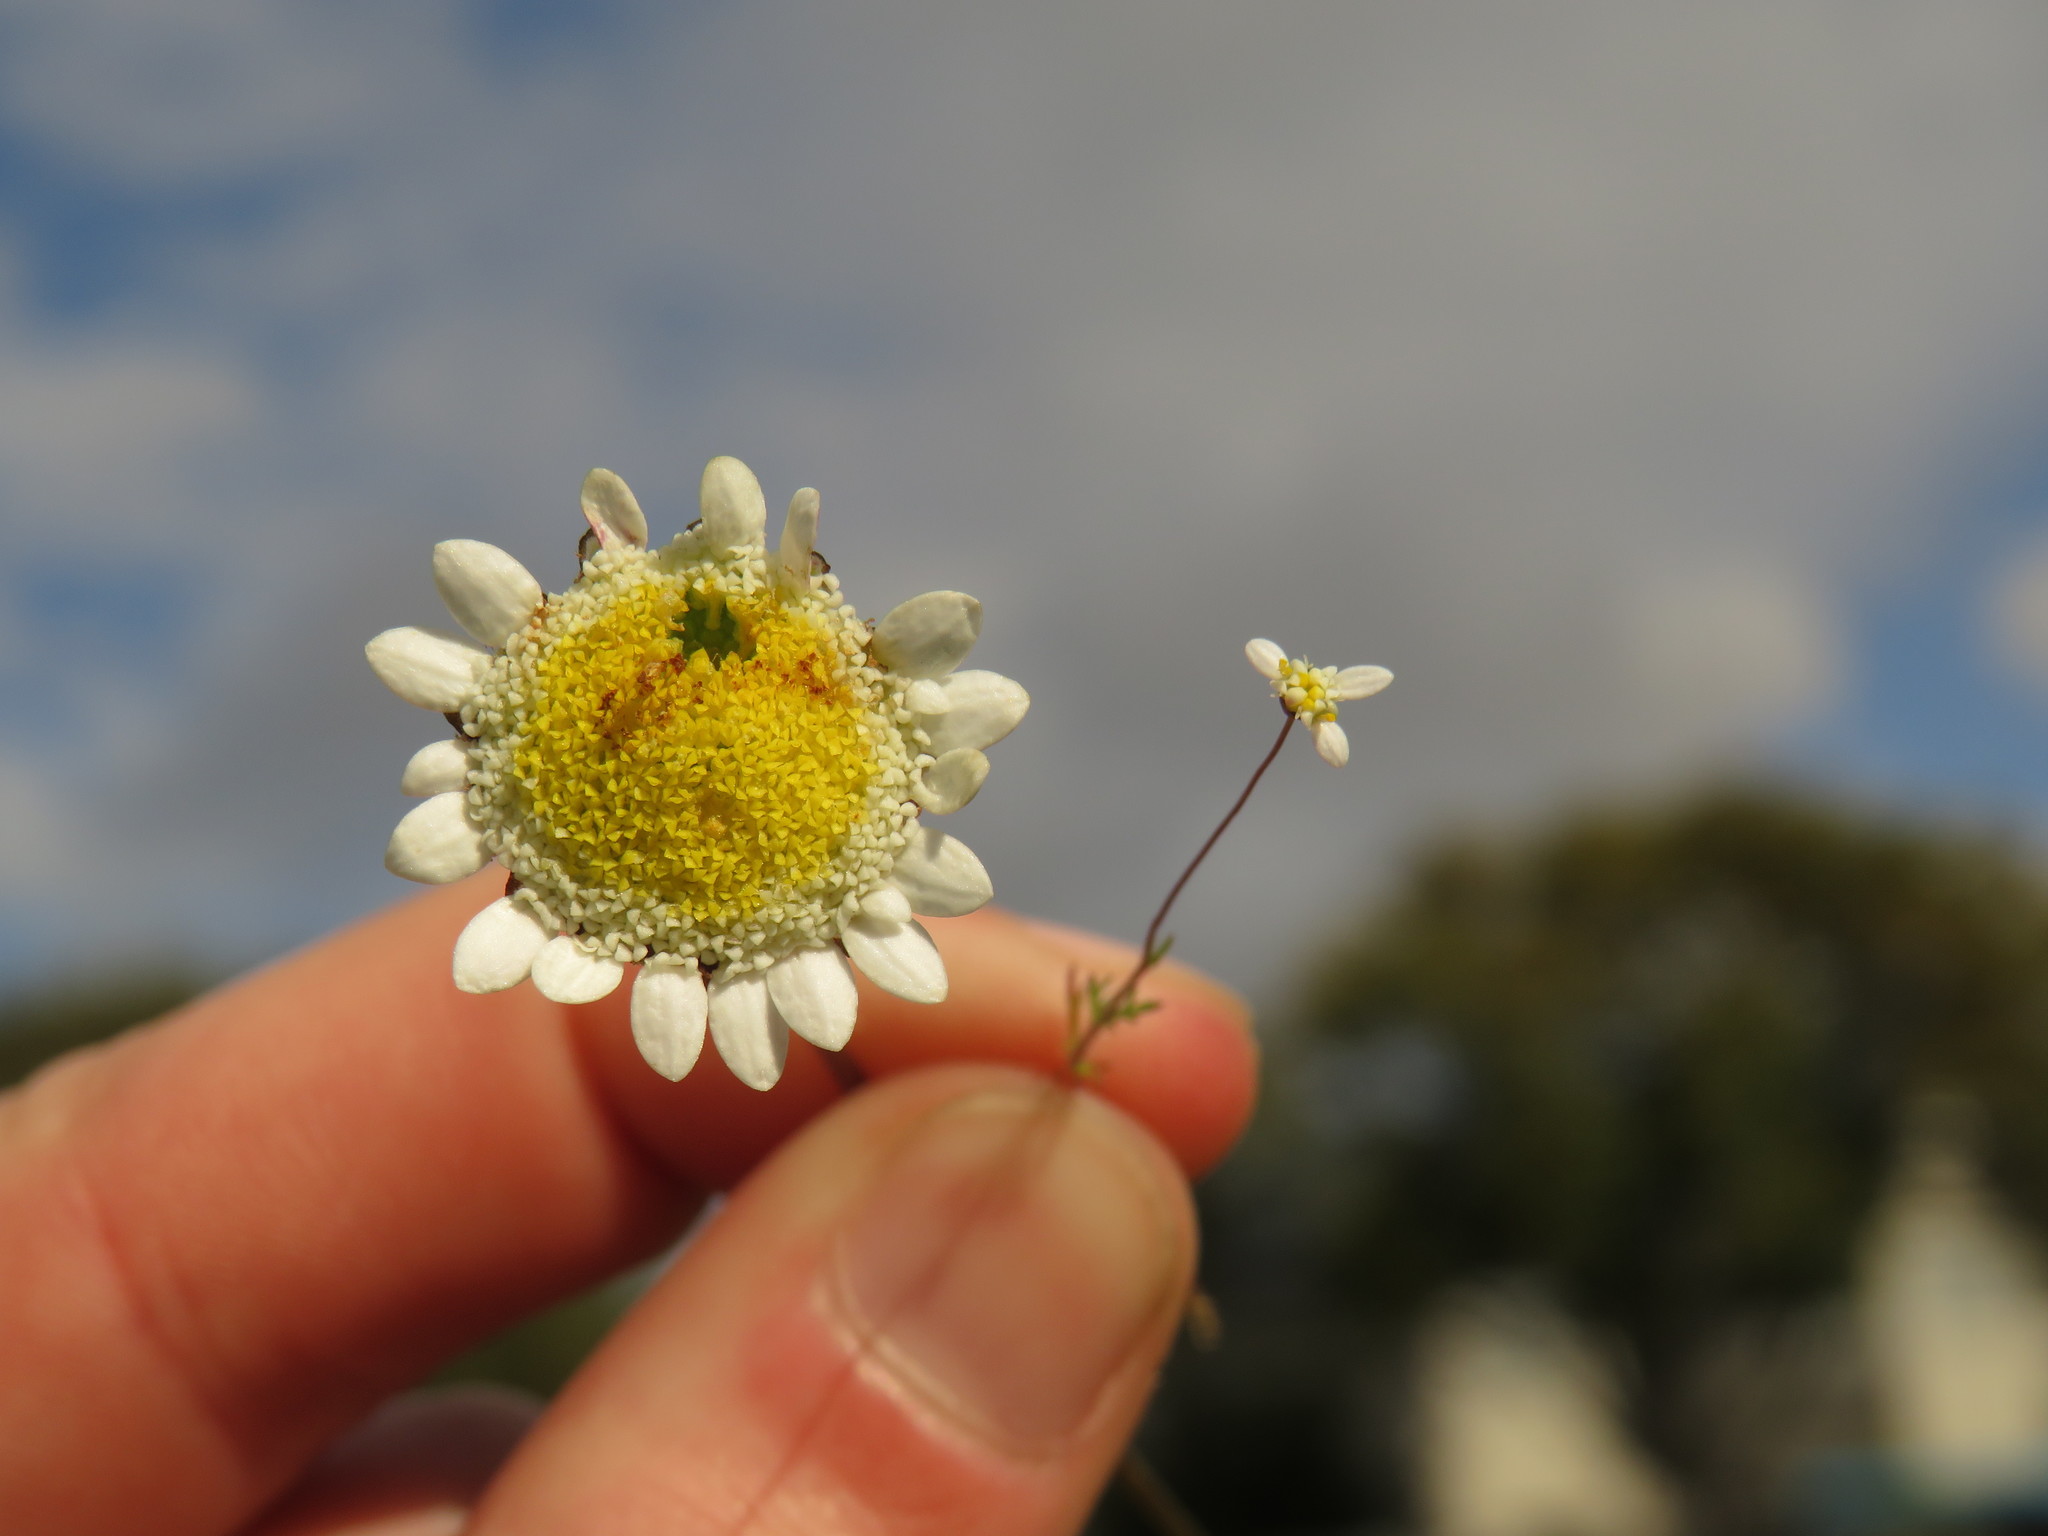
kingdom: Plantae
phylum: Tracheophyta
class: Magnoliopsida
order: Asterales
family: Asteraceae
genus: Cotula
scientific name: Cotula turbinata
